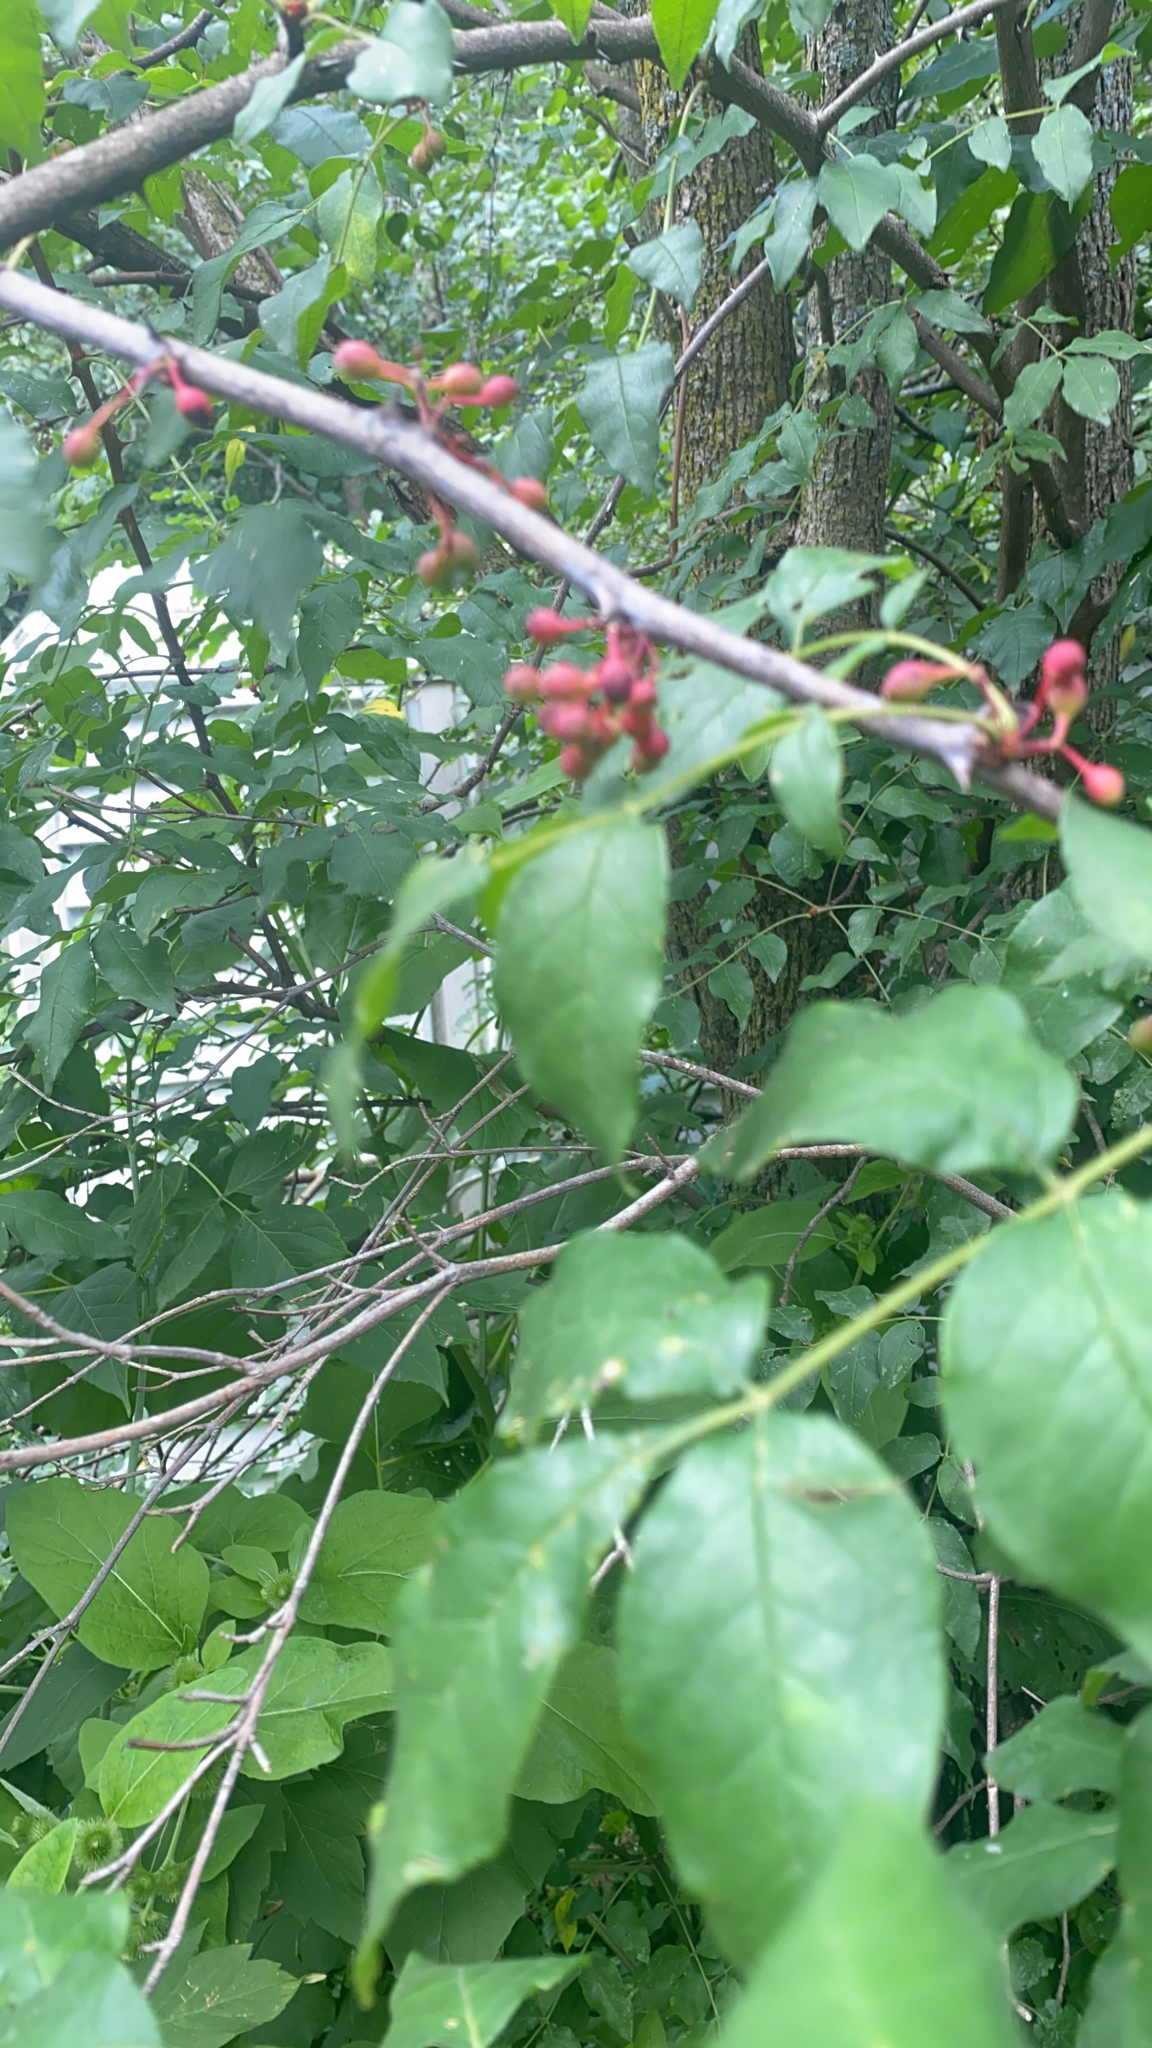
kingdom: Plantae
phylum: Tracheophyta
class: Magnoliopsida
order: Sapindales
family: Rutaceae
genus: Zanthoxylum
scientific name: Zanthoxylum americanum
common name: Northern prickly-ash
